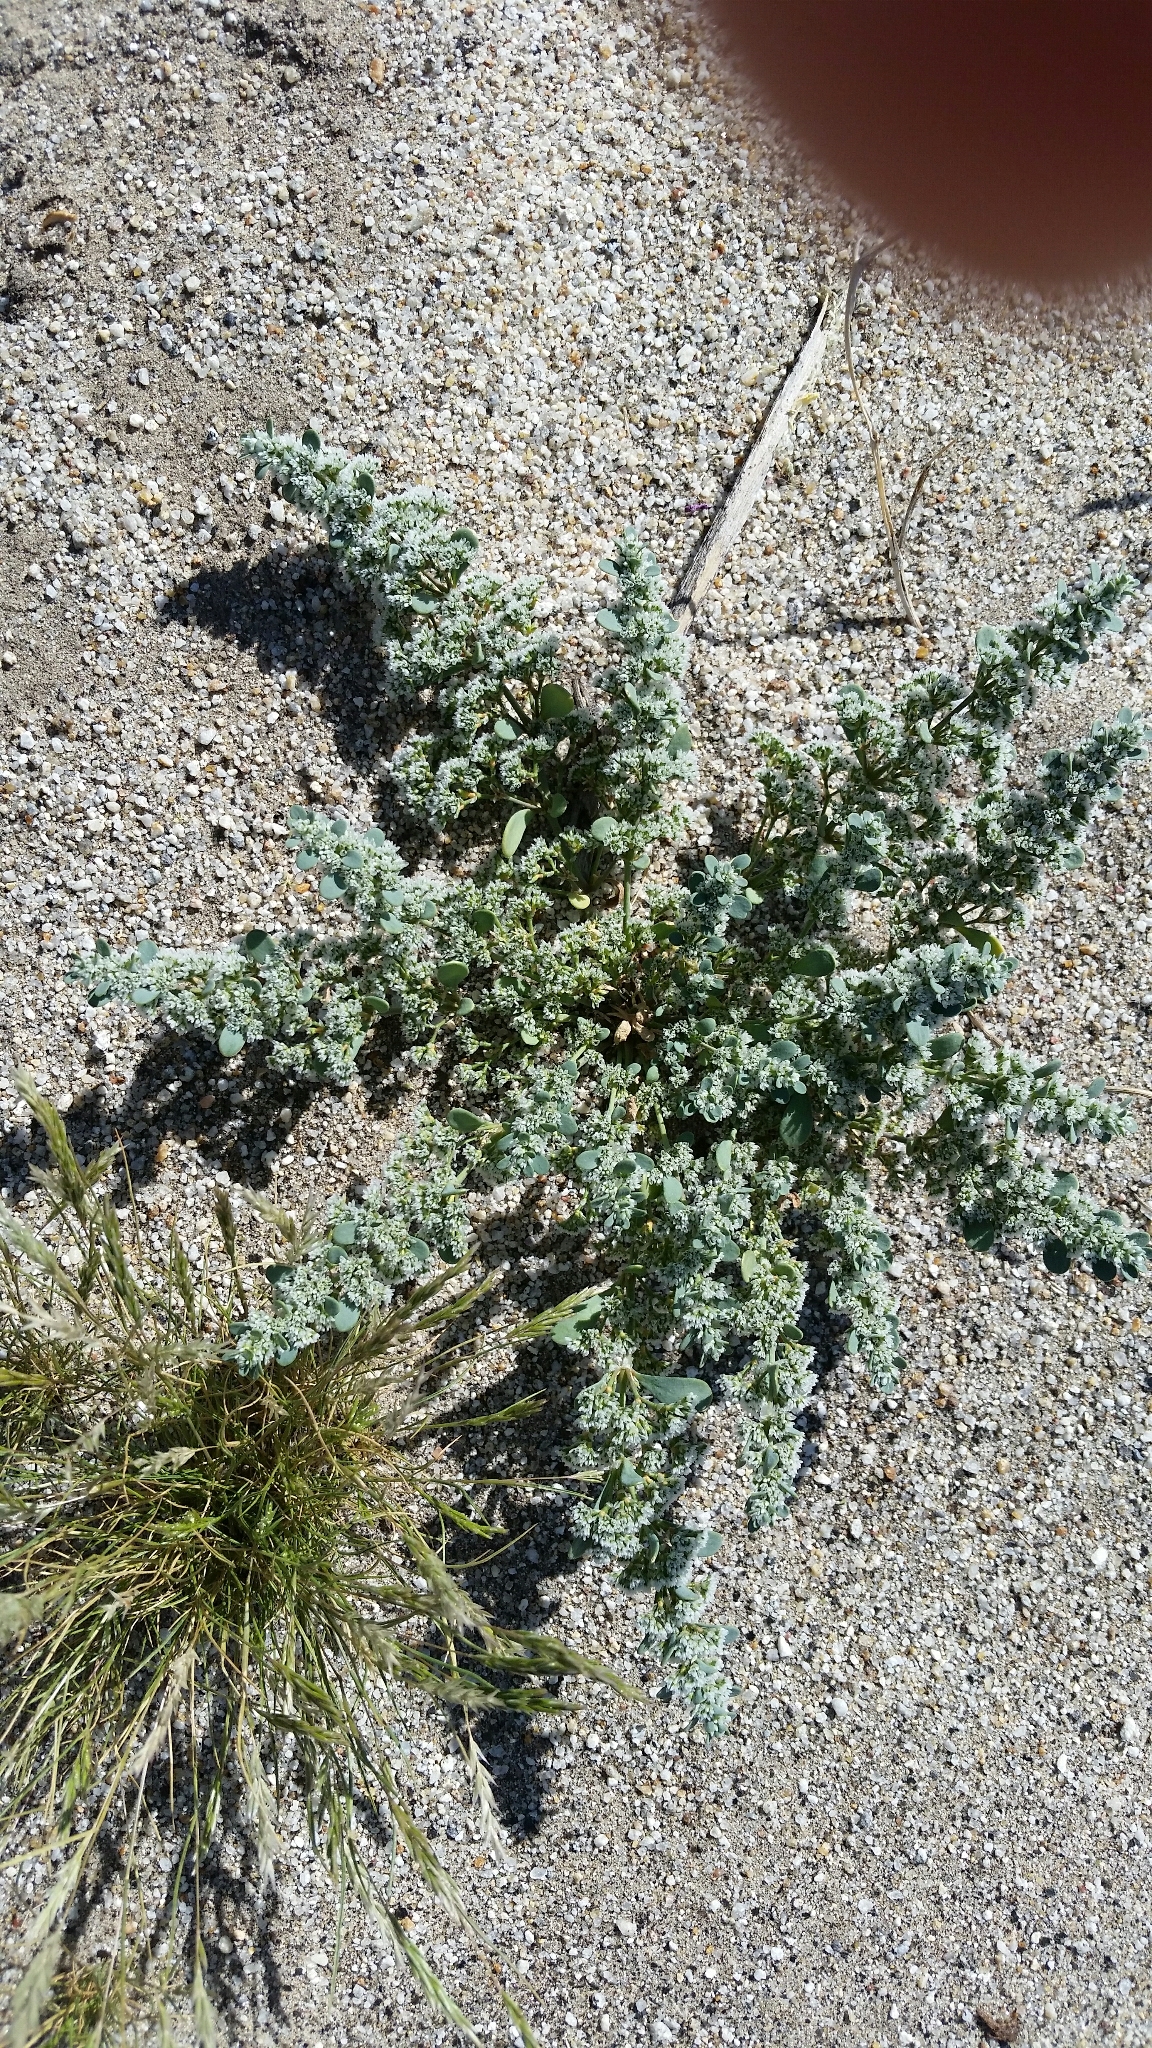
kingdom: Plantae
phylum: Tracheophyta
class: Magnoliopsida
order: Caryophyllales
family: Caryophyllaceae
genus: Achyronychia
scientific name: Achyronychia cooperi
